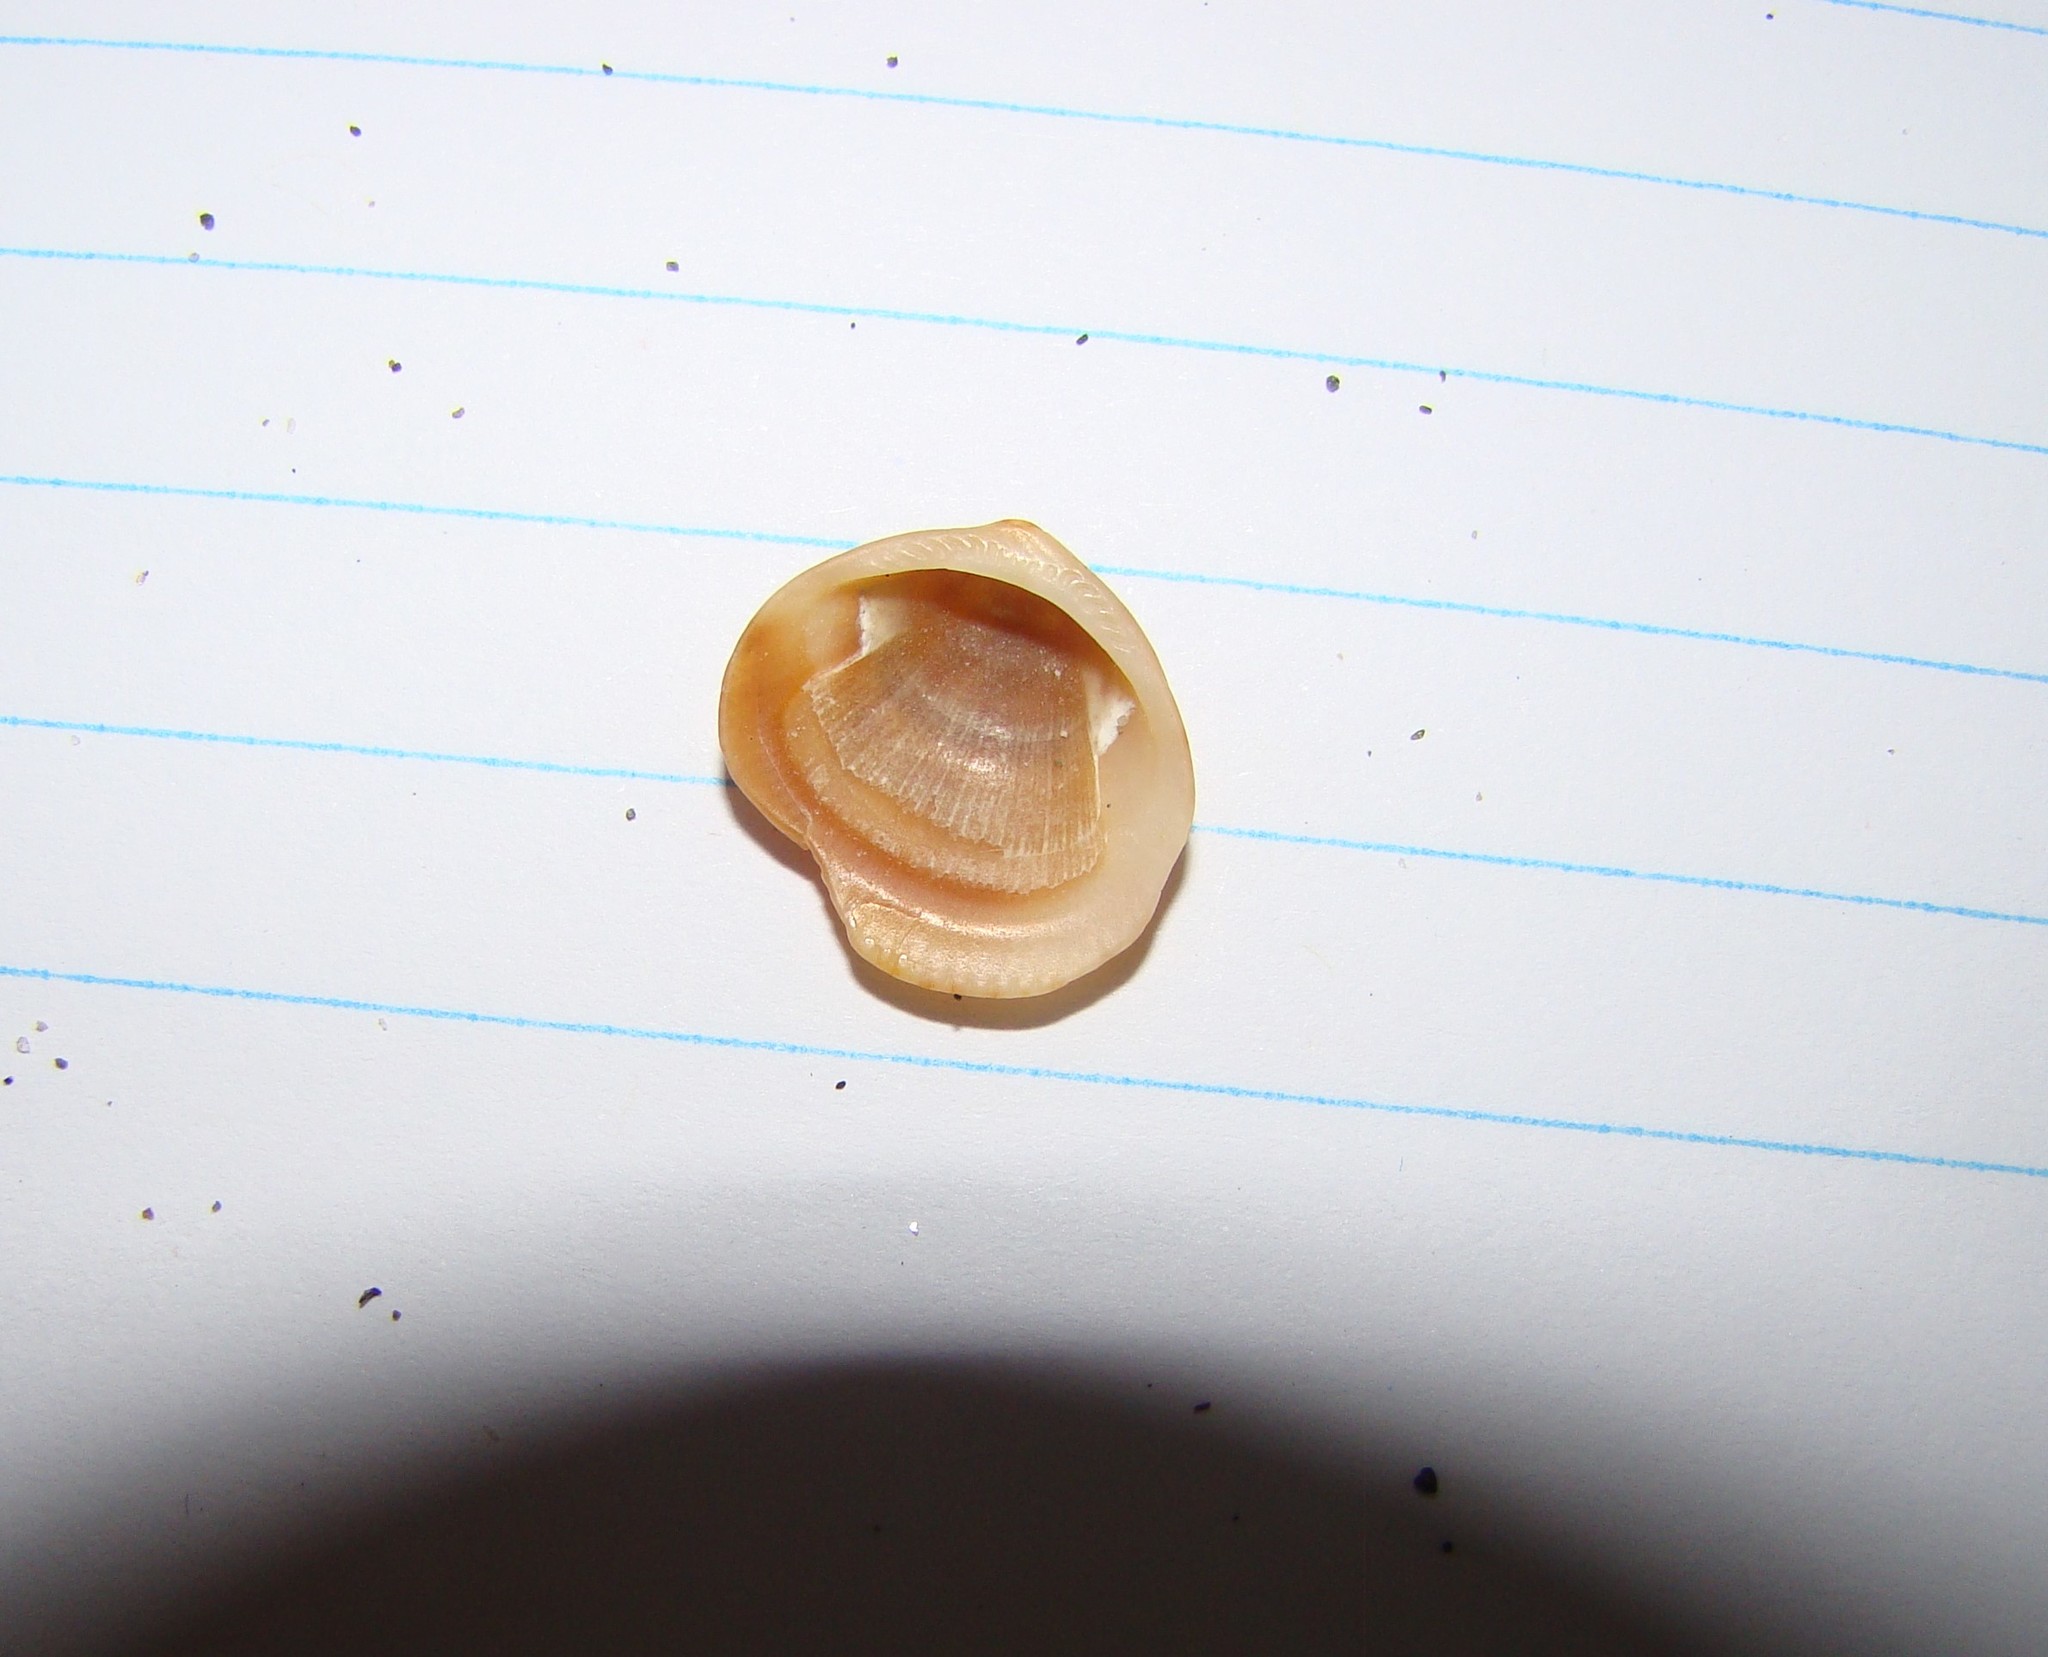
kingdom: Animalia
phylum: Mollusca
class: Bivalvia
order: Arcida
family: Glycymerididae
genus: Glycymeris
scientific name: Glycymeris modesta
